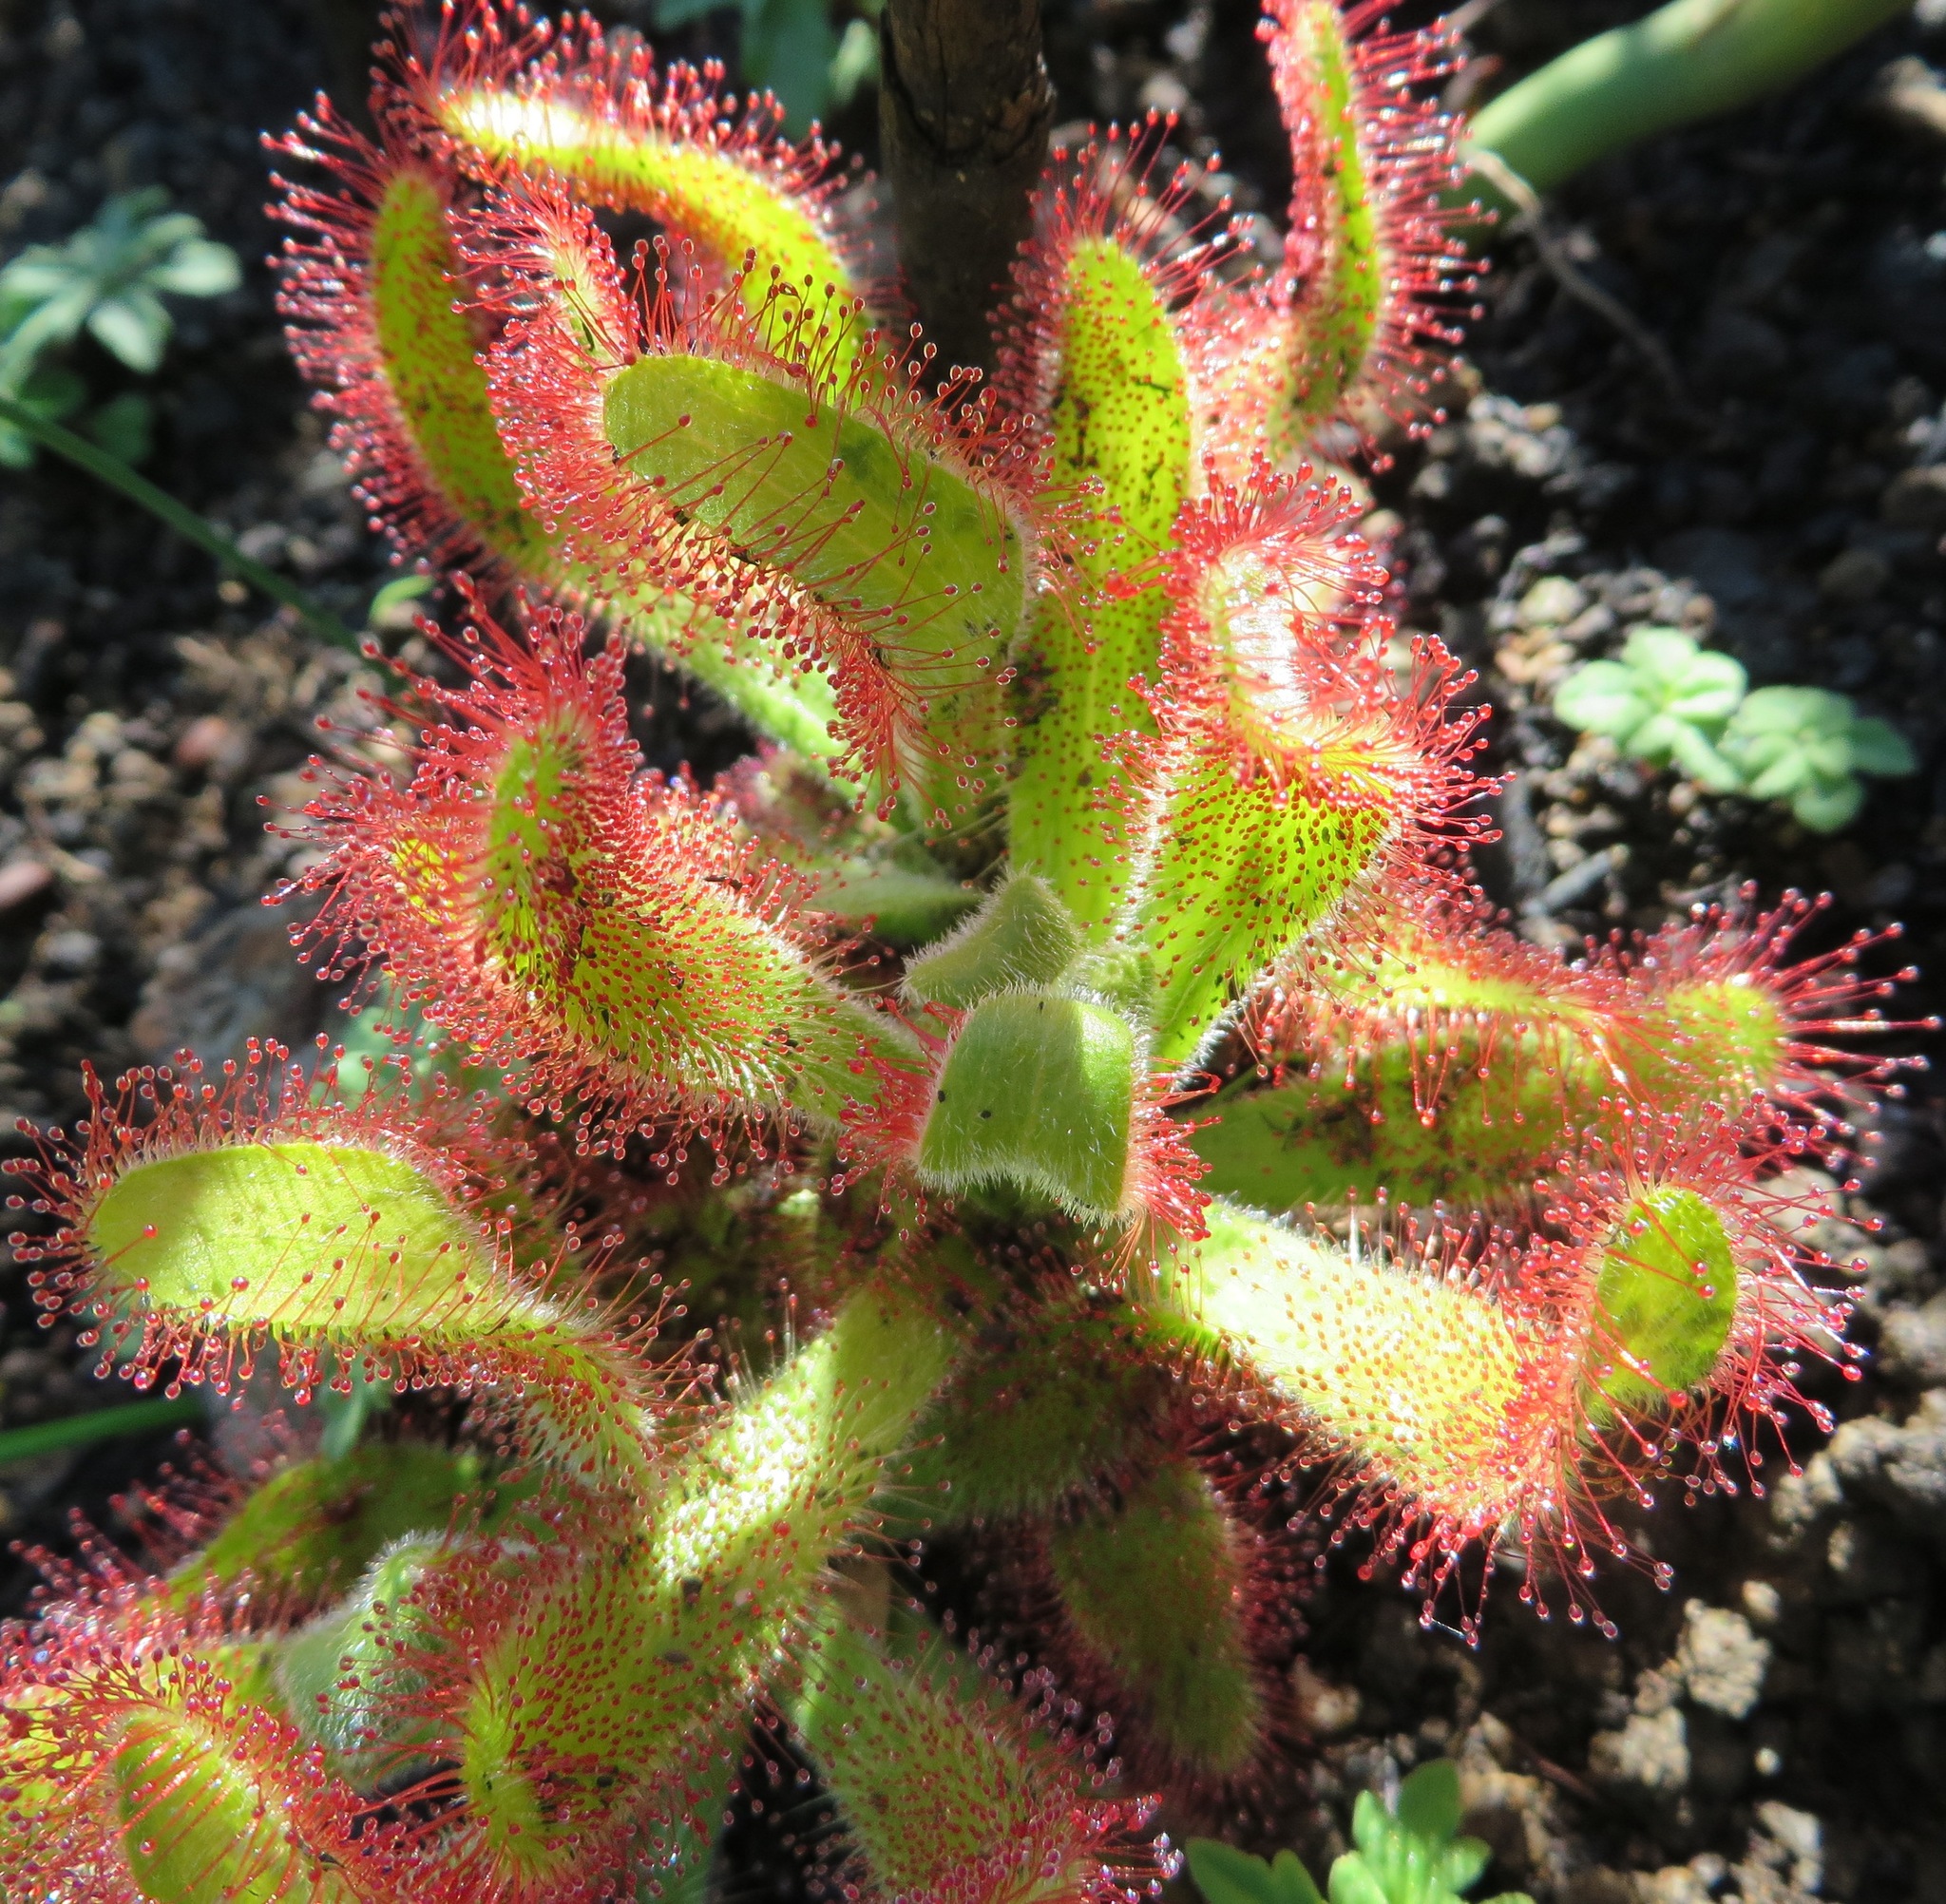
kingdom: Plantae
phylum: Tracheophyta
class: Magnoliopsida
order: Caryophyllales
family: Droseraceae
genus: Drosera
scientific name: Drosera hilaris
